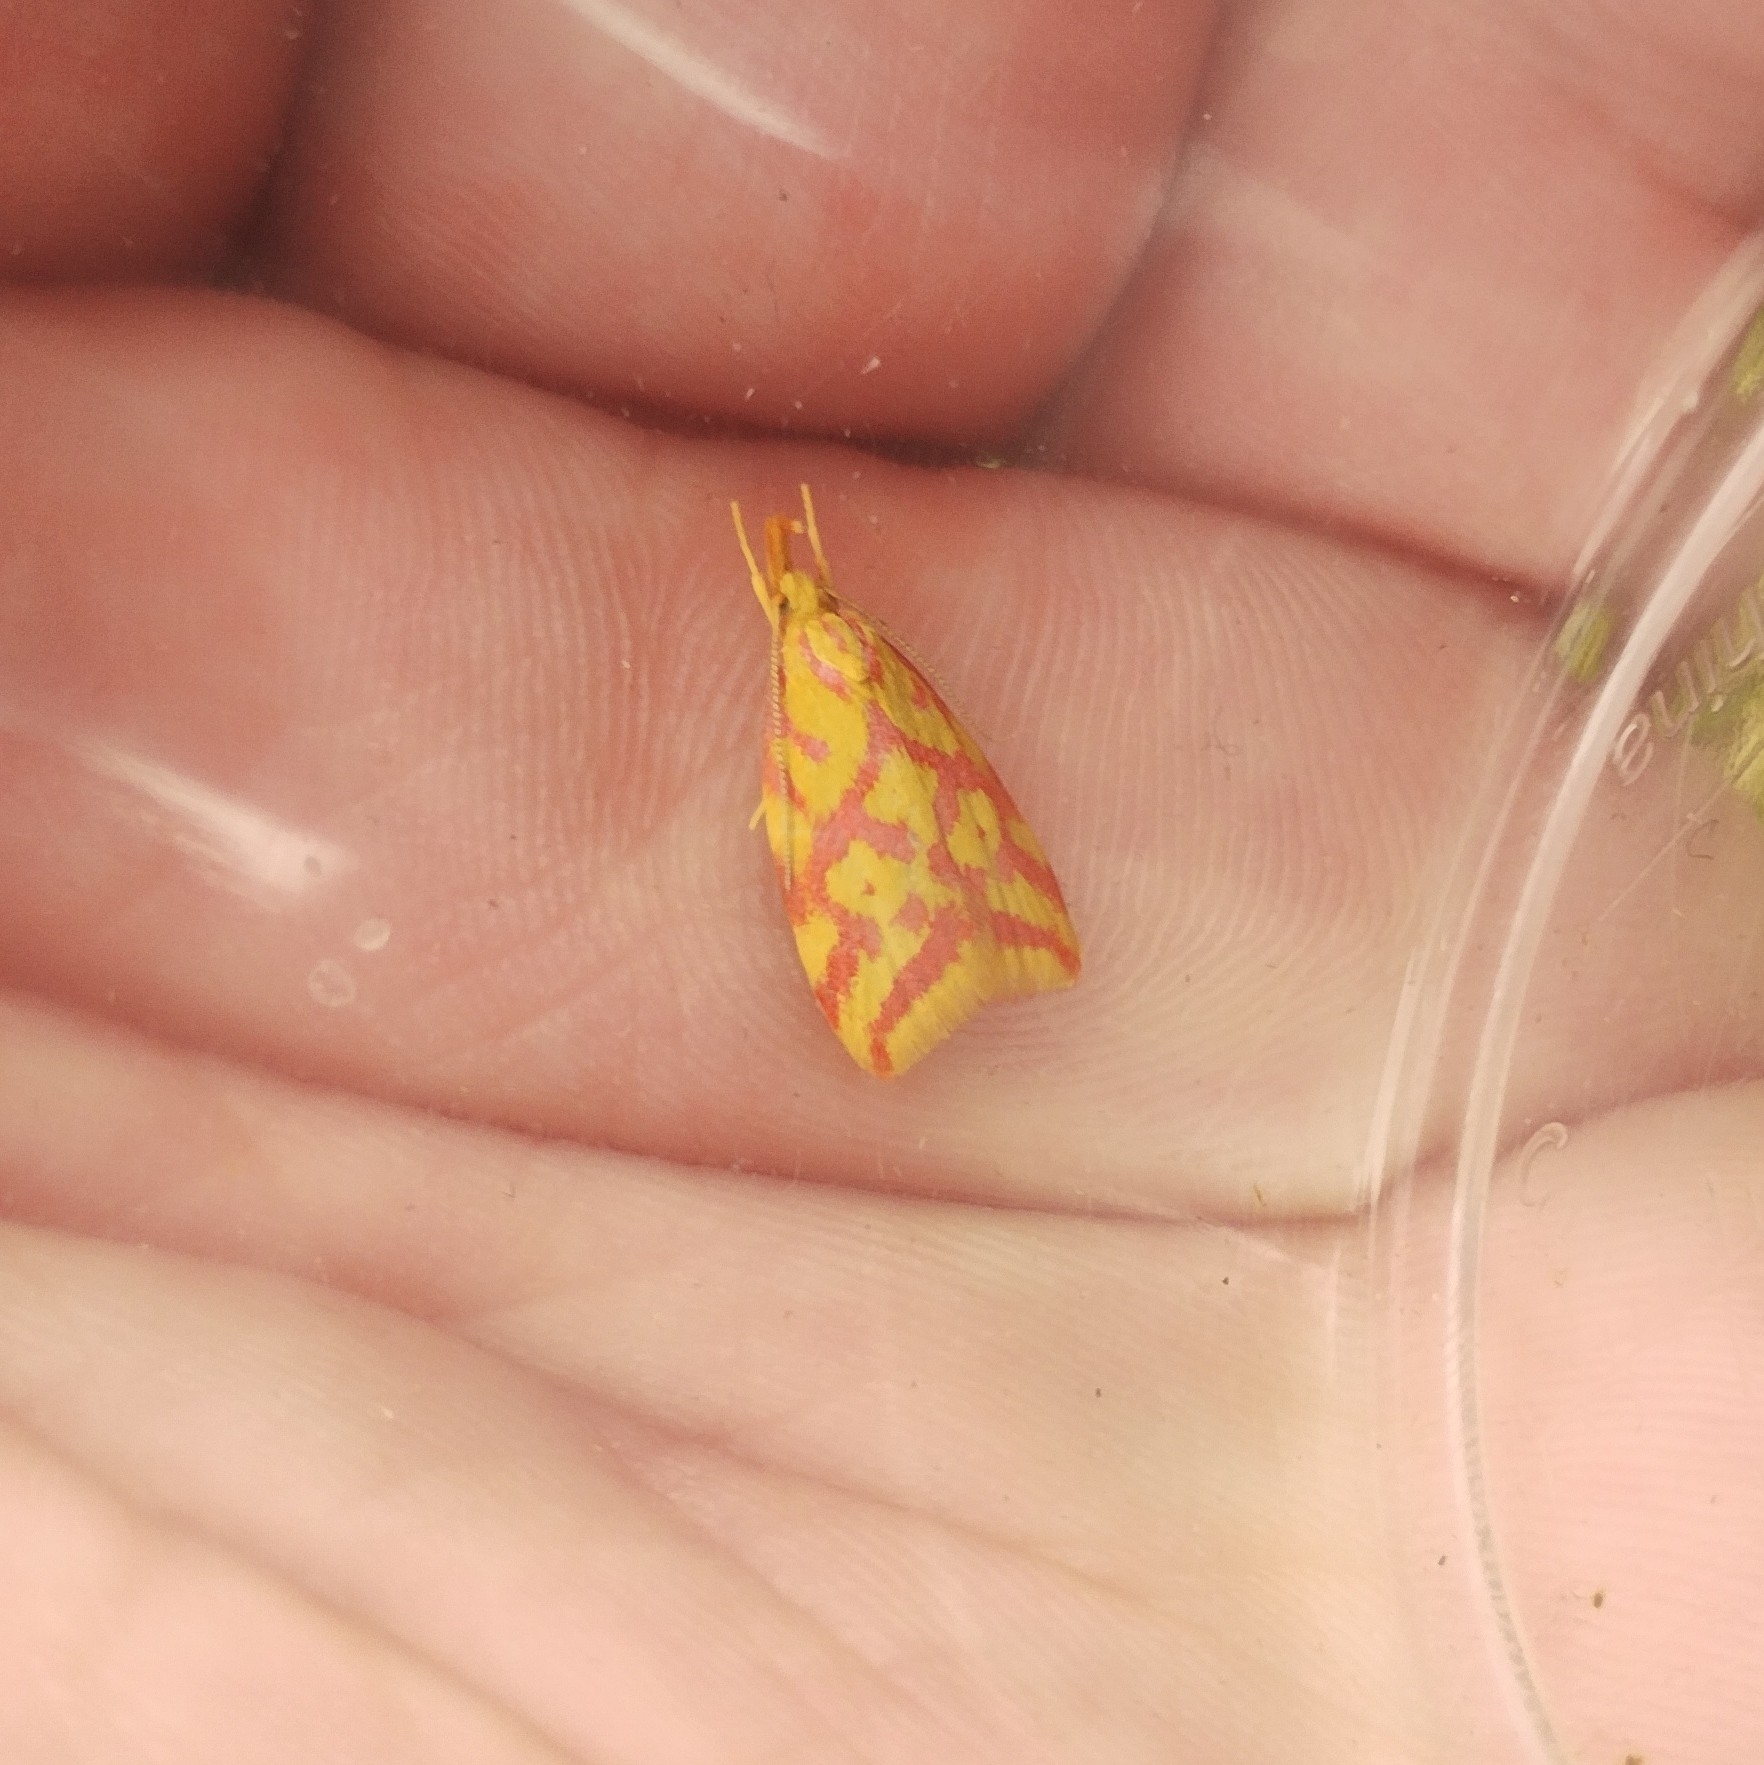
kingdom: Animalia
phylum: Arthropoda
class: Insecta
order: Lepidoptera
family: Oecophoridae
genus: Hypercallia
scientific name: Hypercallia citrinalis
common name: Lemon flat-body
